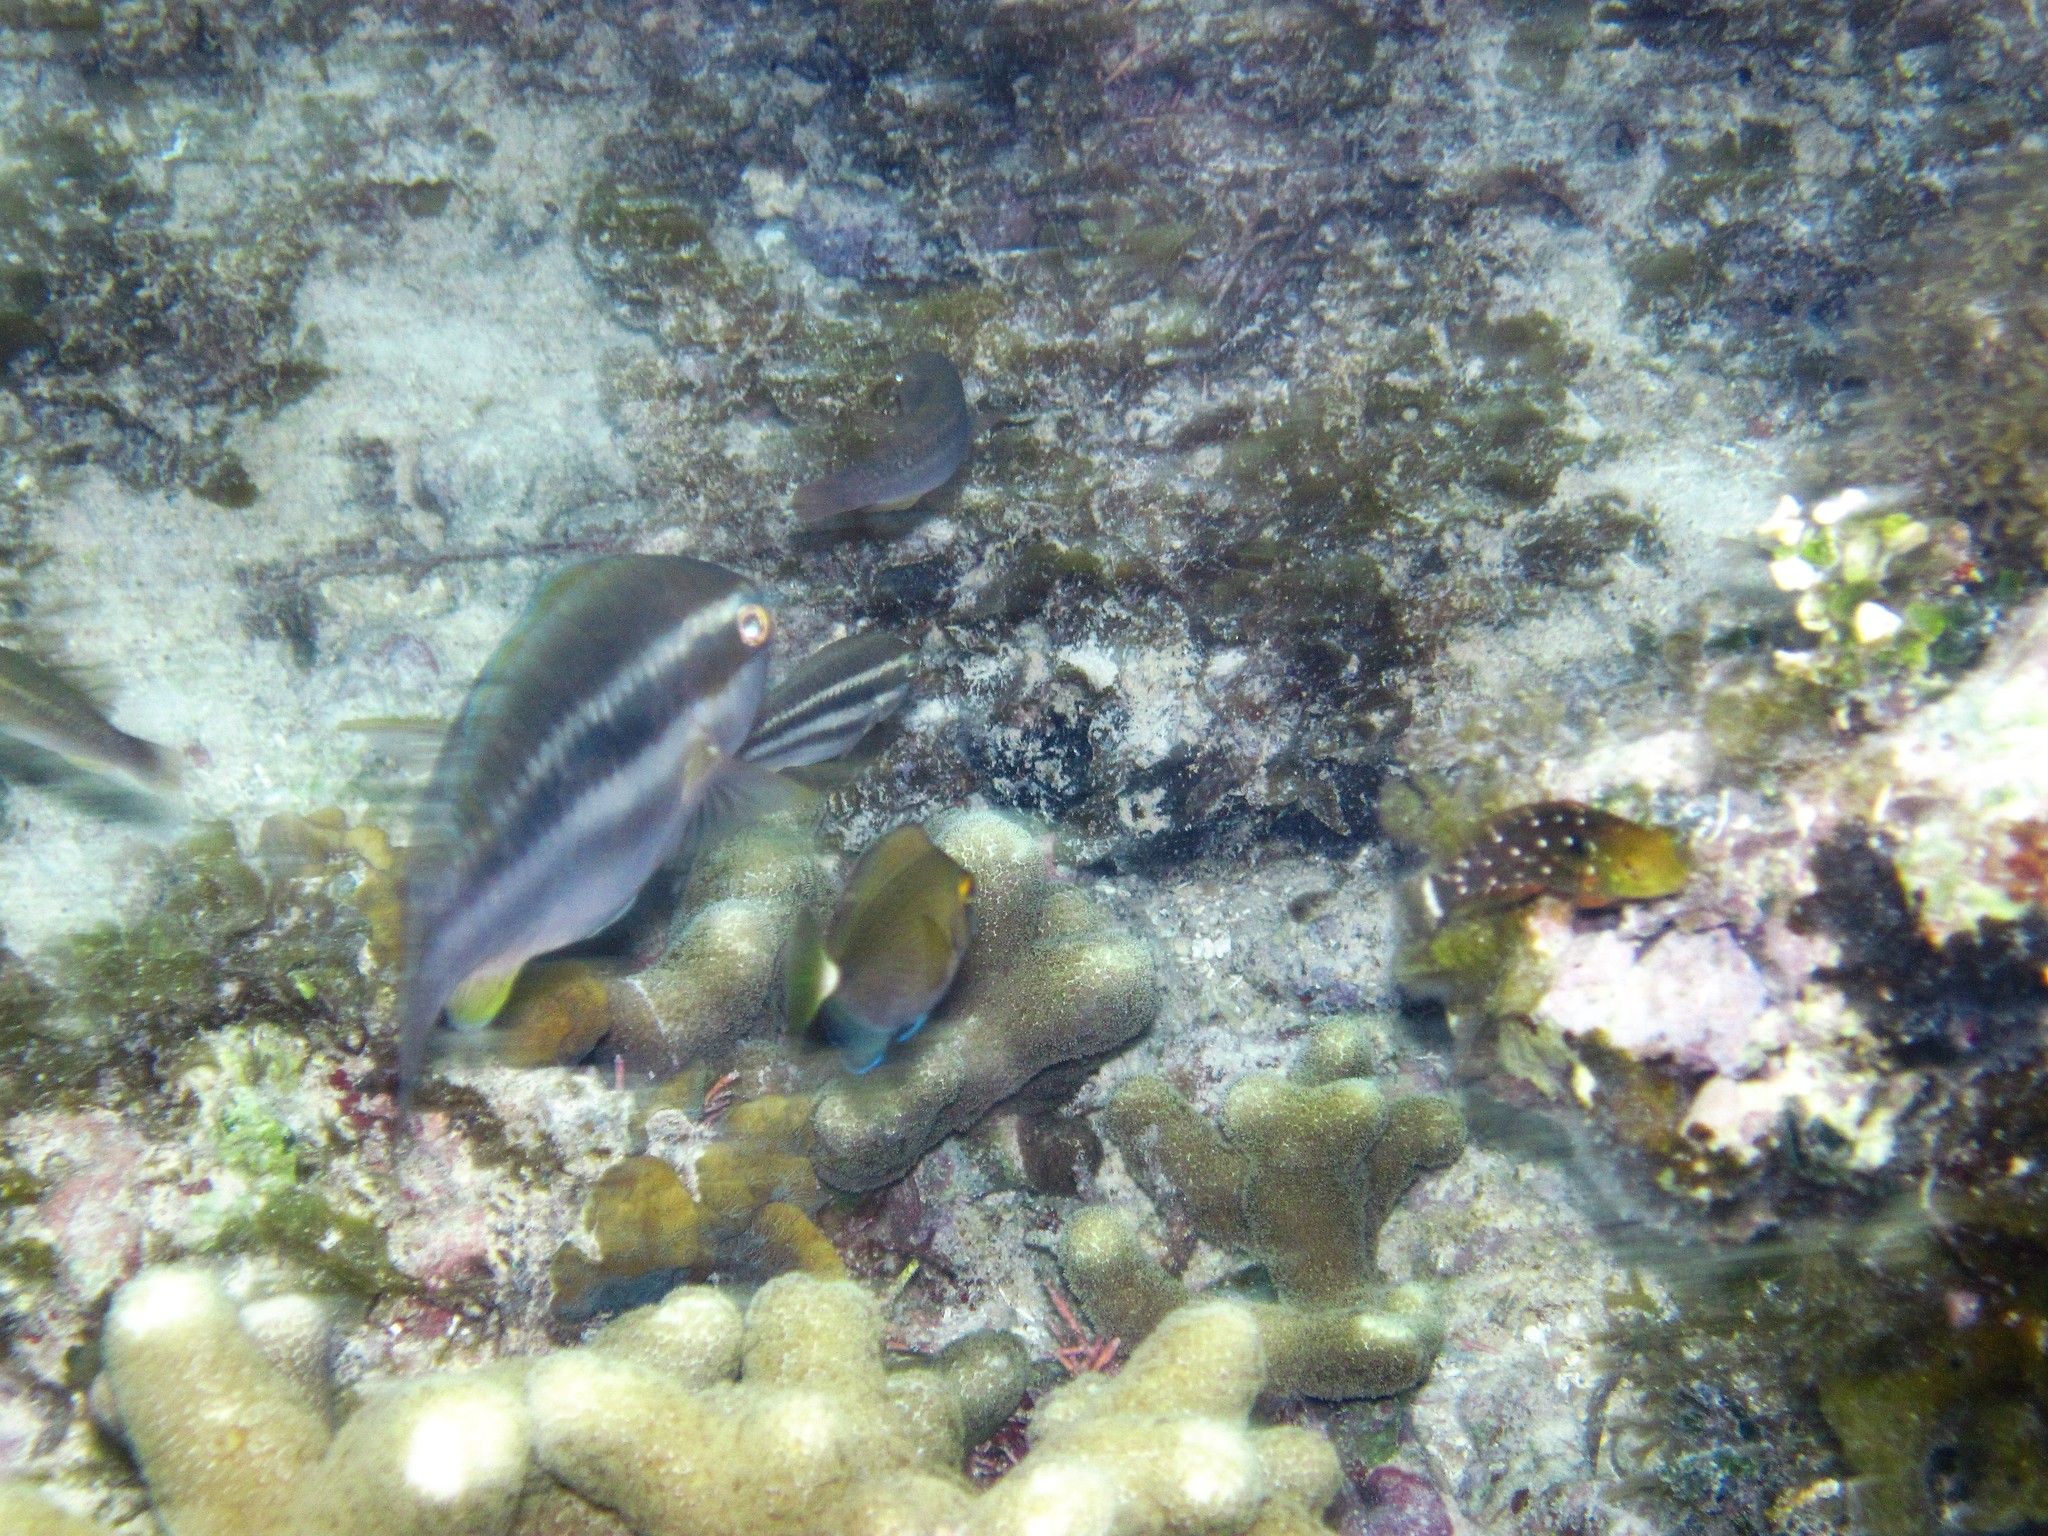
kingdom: Animalia
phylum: Chordata
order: Perciformes
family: Scaridae
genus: Scarus
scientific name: Scarus
